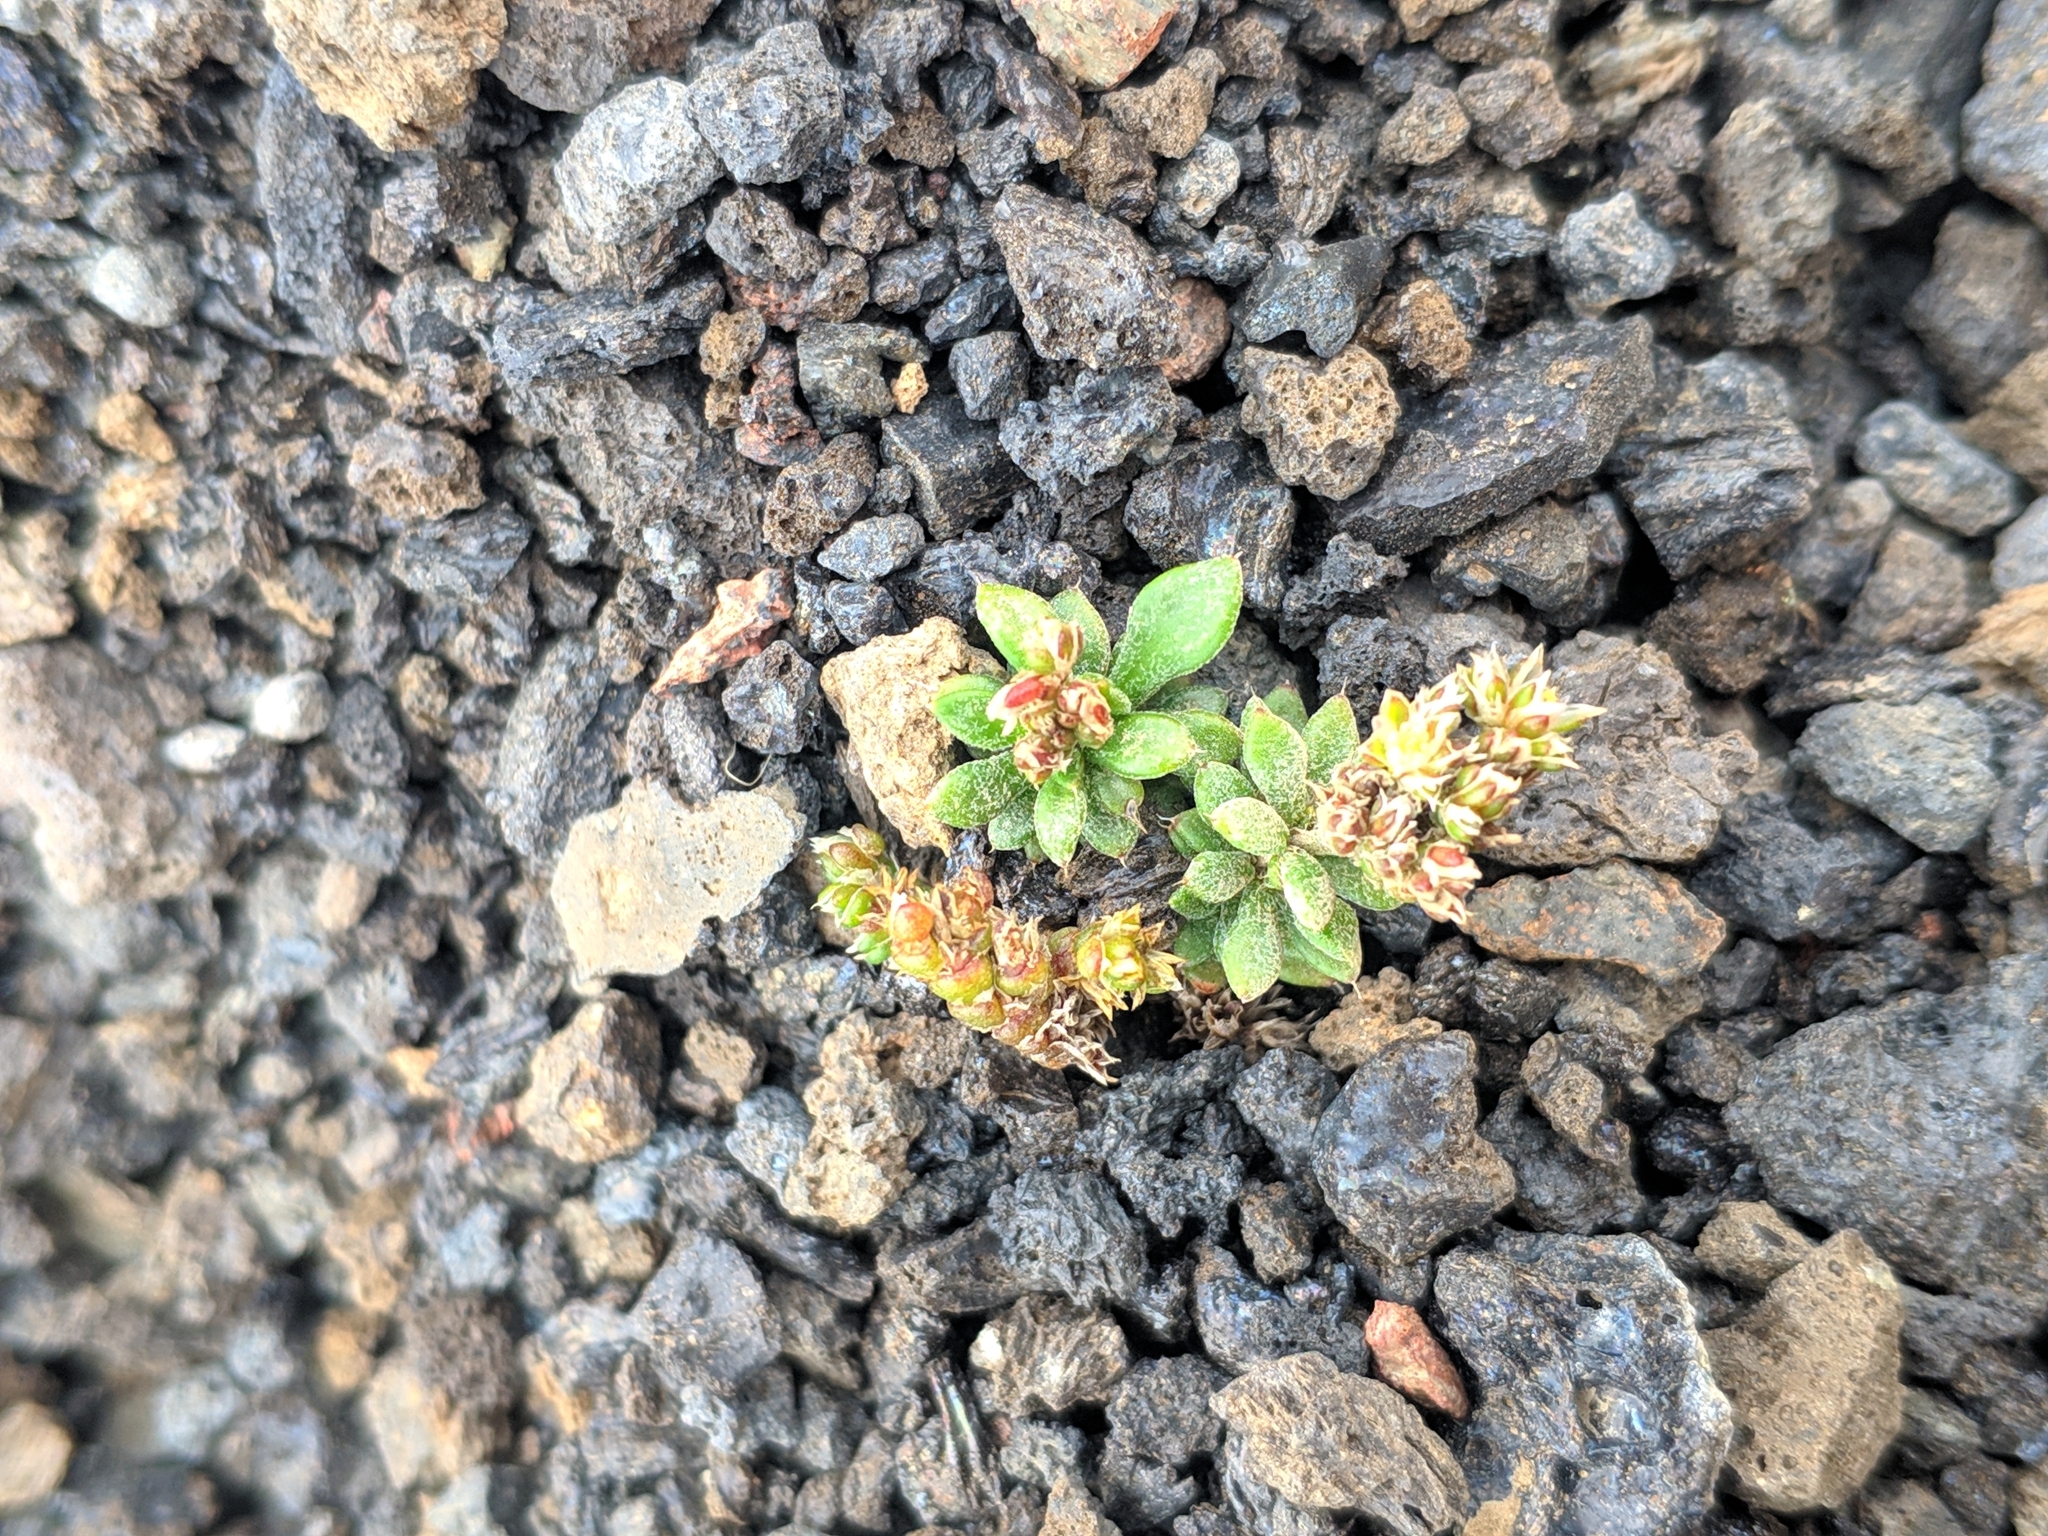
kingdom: Plantae
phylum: Tracheophyta
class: Magnoliopsida
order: Caryophyllales
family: Caryophyllaceae
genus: Polycarpaea
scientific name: Polycarpaea divaricata
